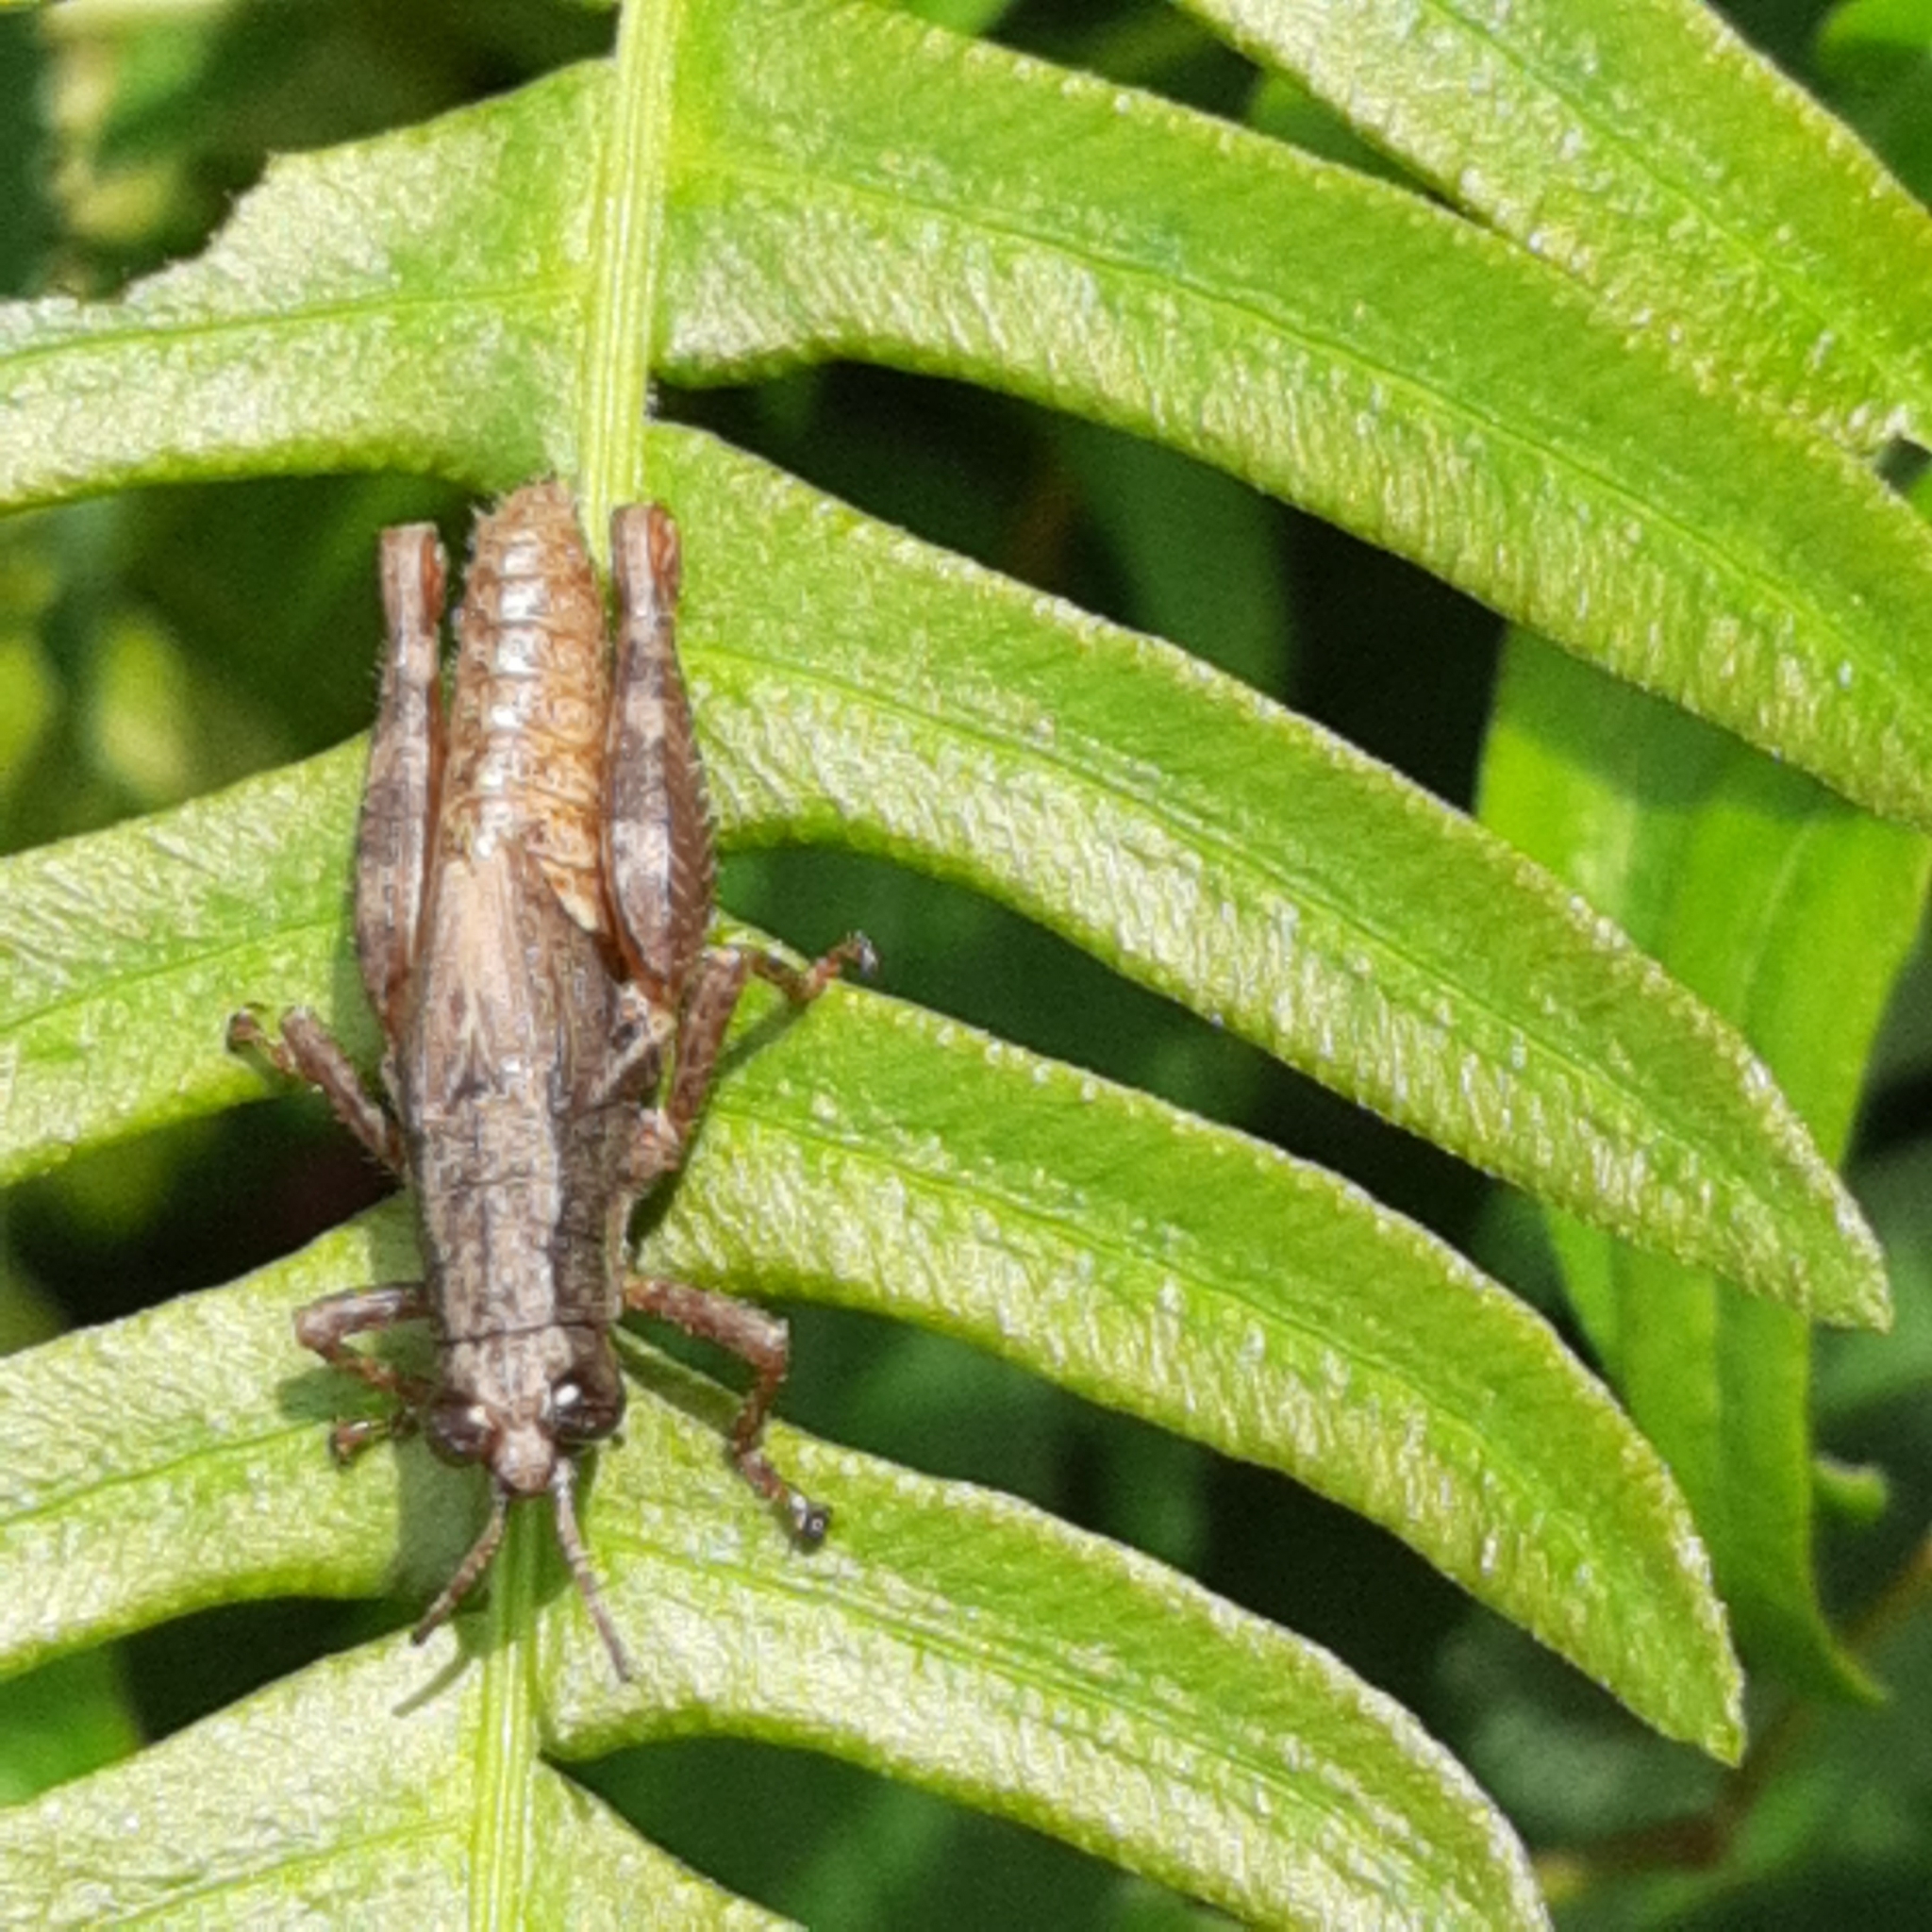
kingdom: Animalia
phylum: Arthropoda
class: Insecta
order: Orthoptera
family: Acrididae
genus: Vilerna
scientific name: Vilerna polita
